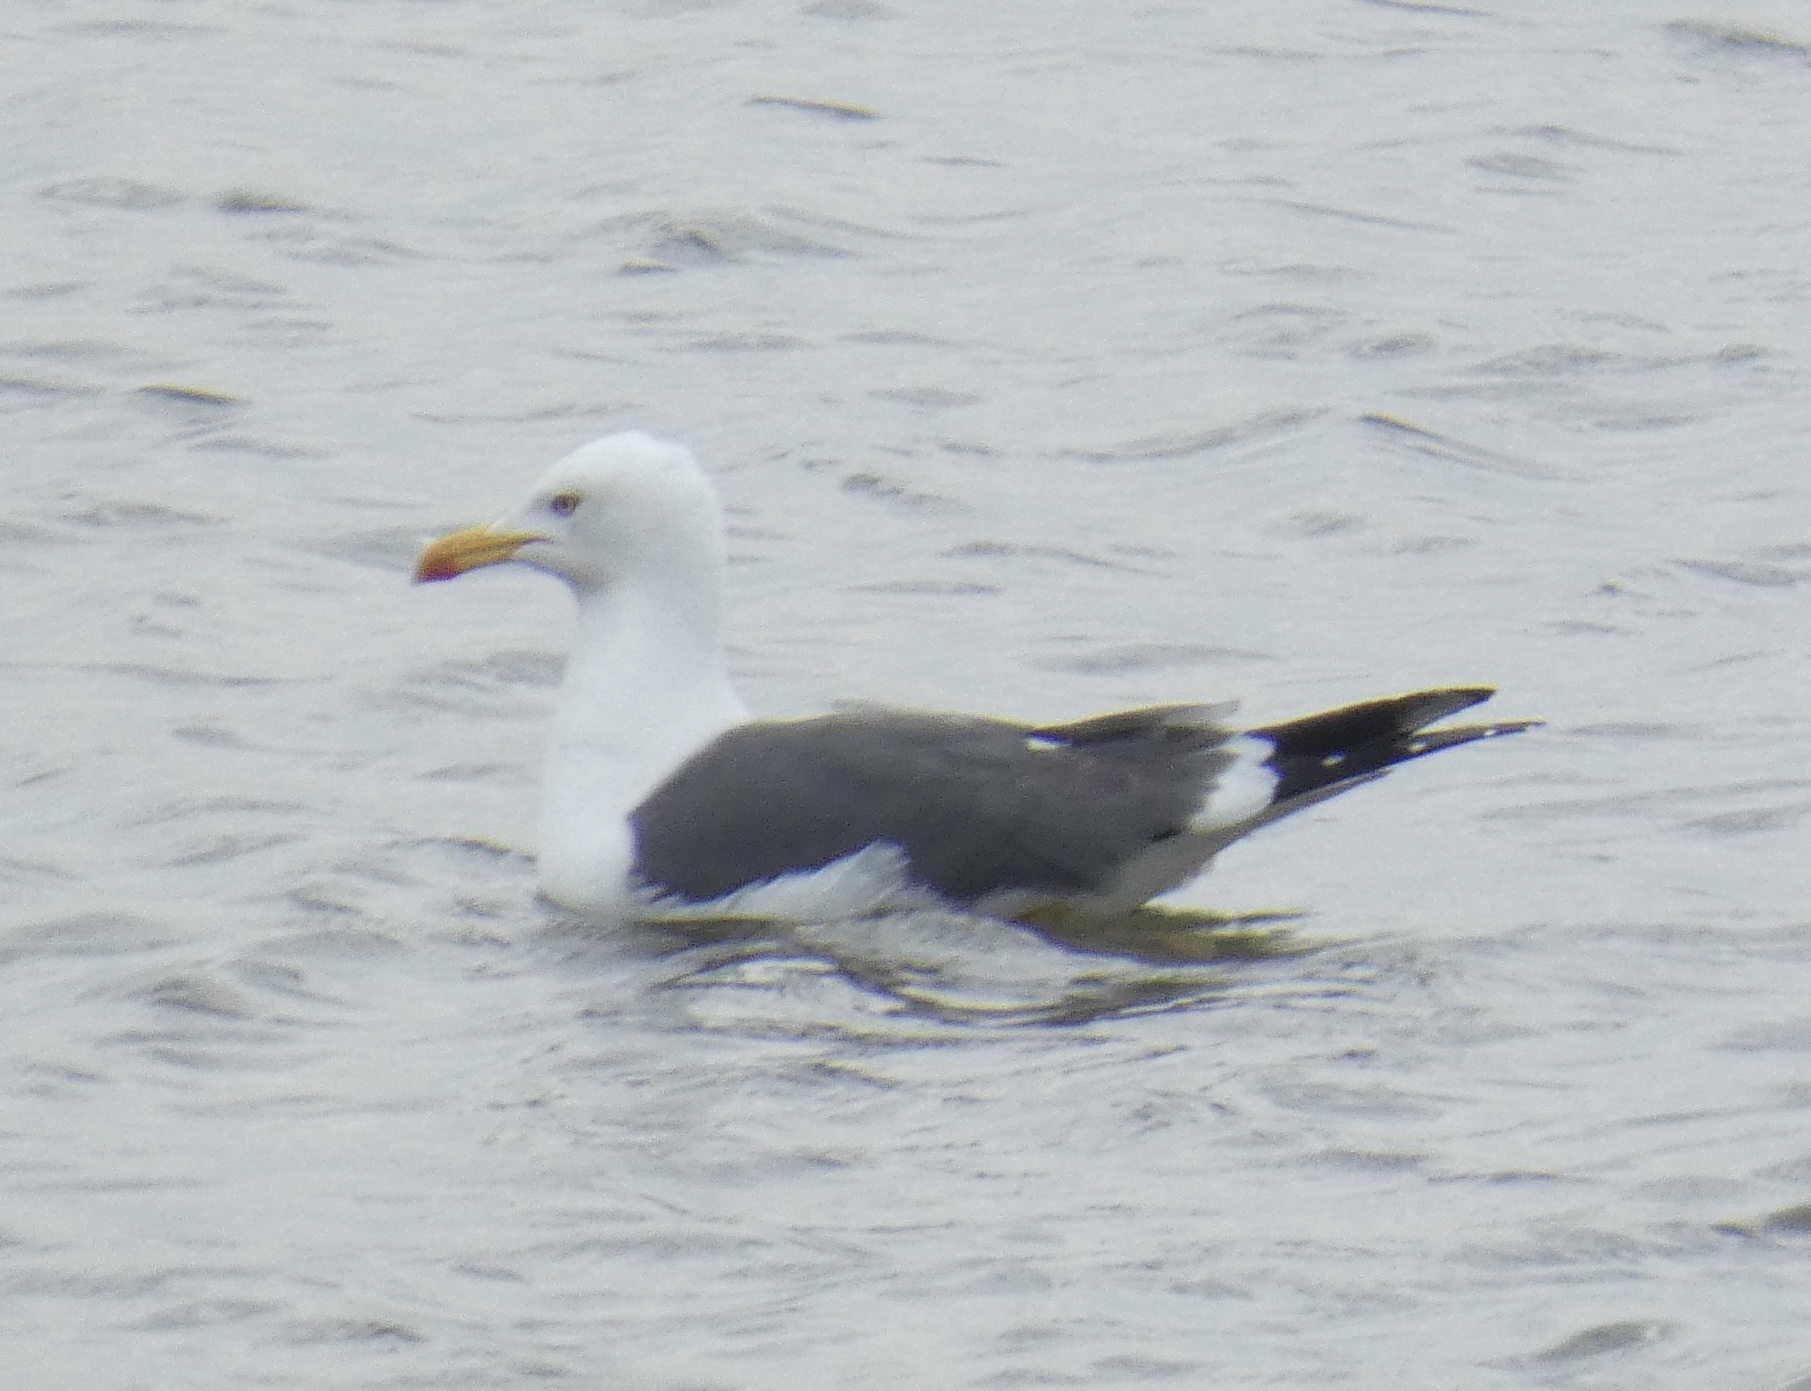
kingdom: Animalia
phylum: Chordata
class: Aves
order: Charadriiformes
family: Laridae
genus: Larus
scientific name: Larus fuscus
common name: Lesser black-backed gull
